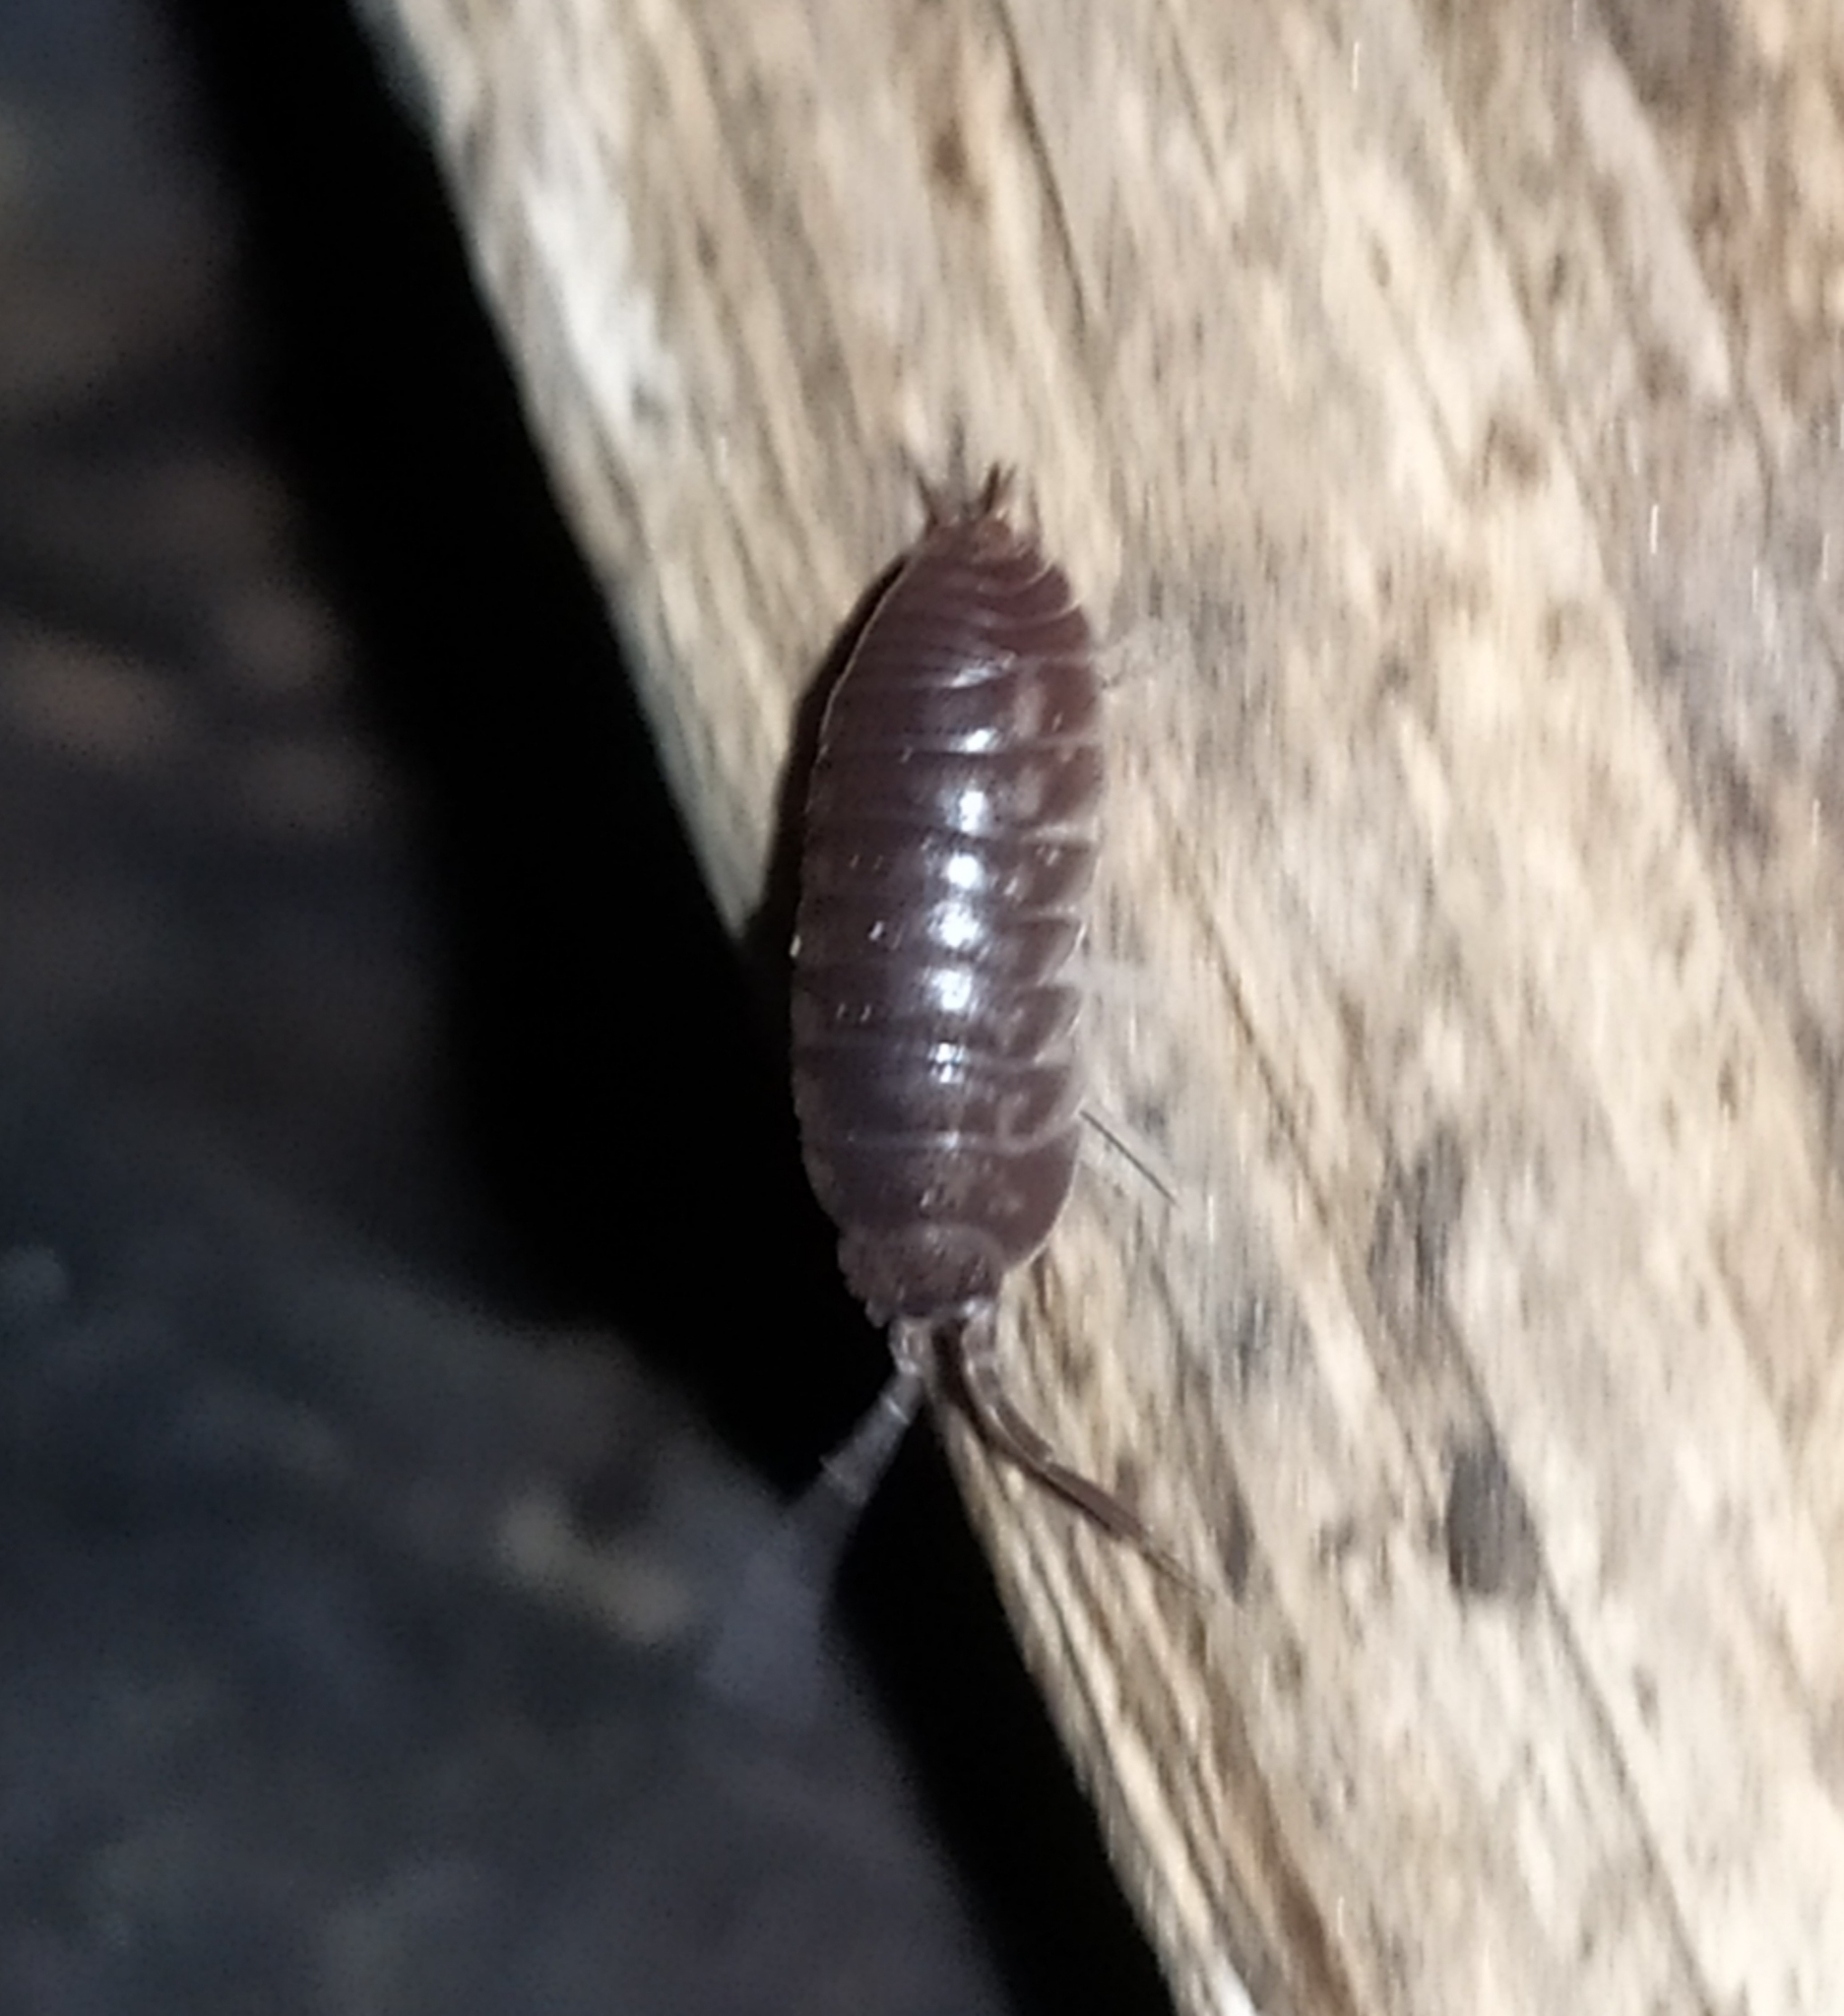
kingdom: Animalia
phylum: Arthropoda
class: Malacostraca
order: Isopoda
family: Cylisticidae
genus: Cylisticus
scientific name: Cylisticus convexus
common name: Curly woodlouse
